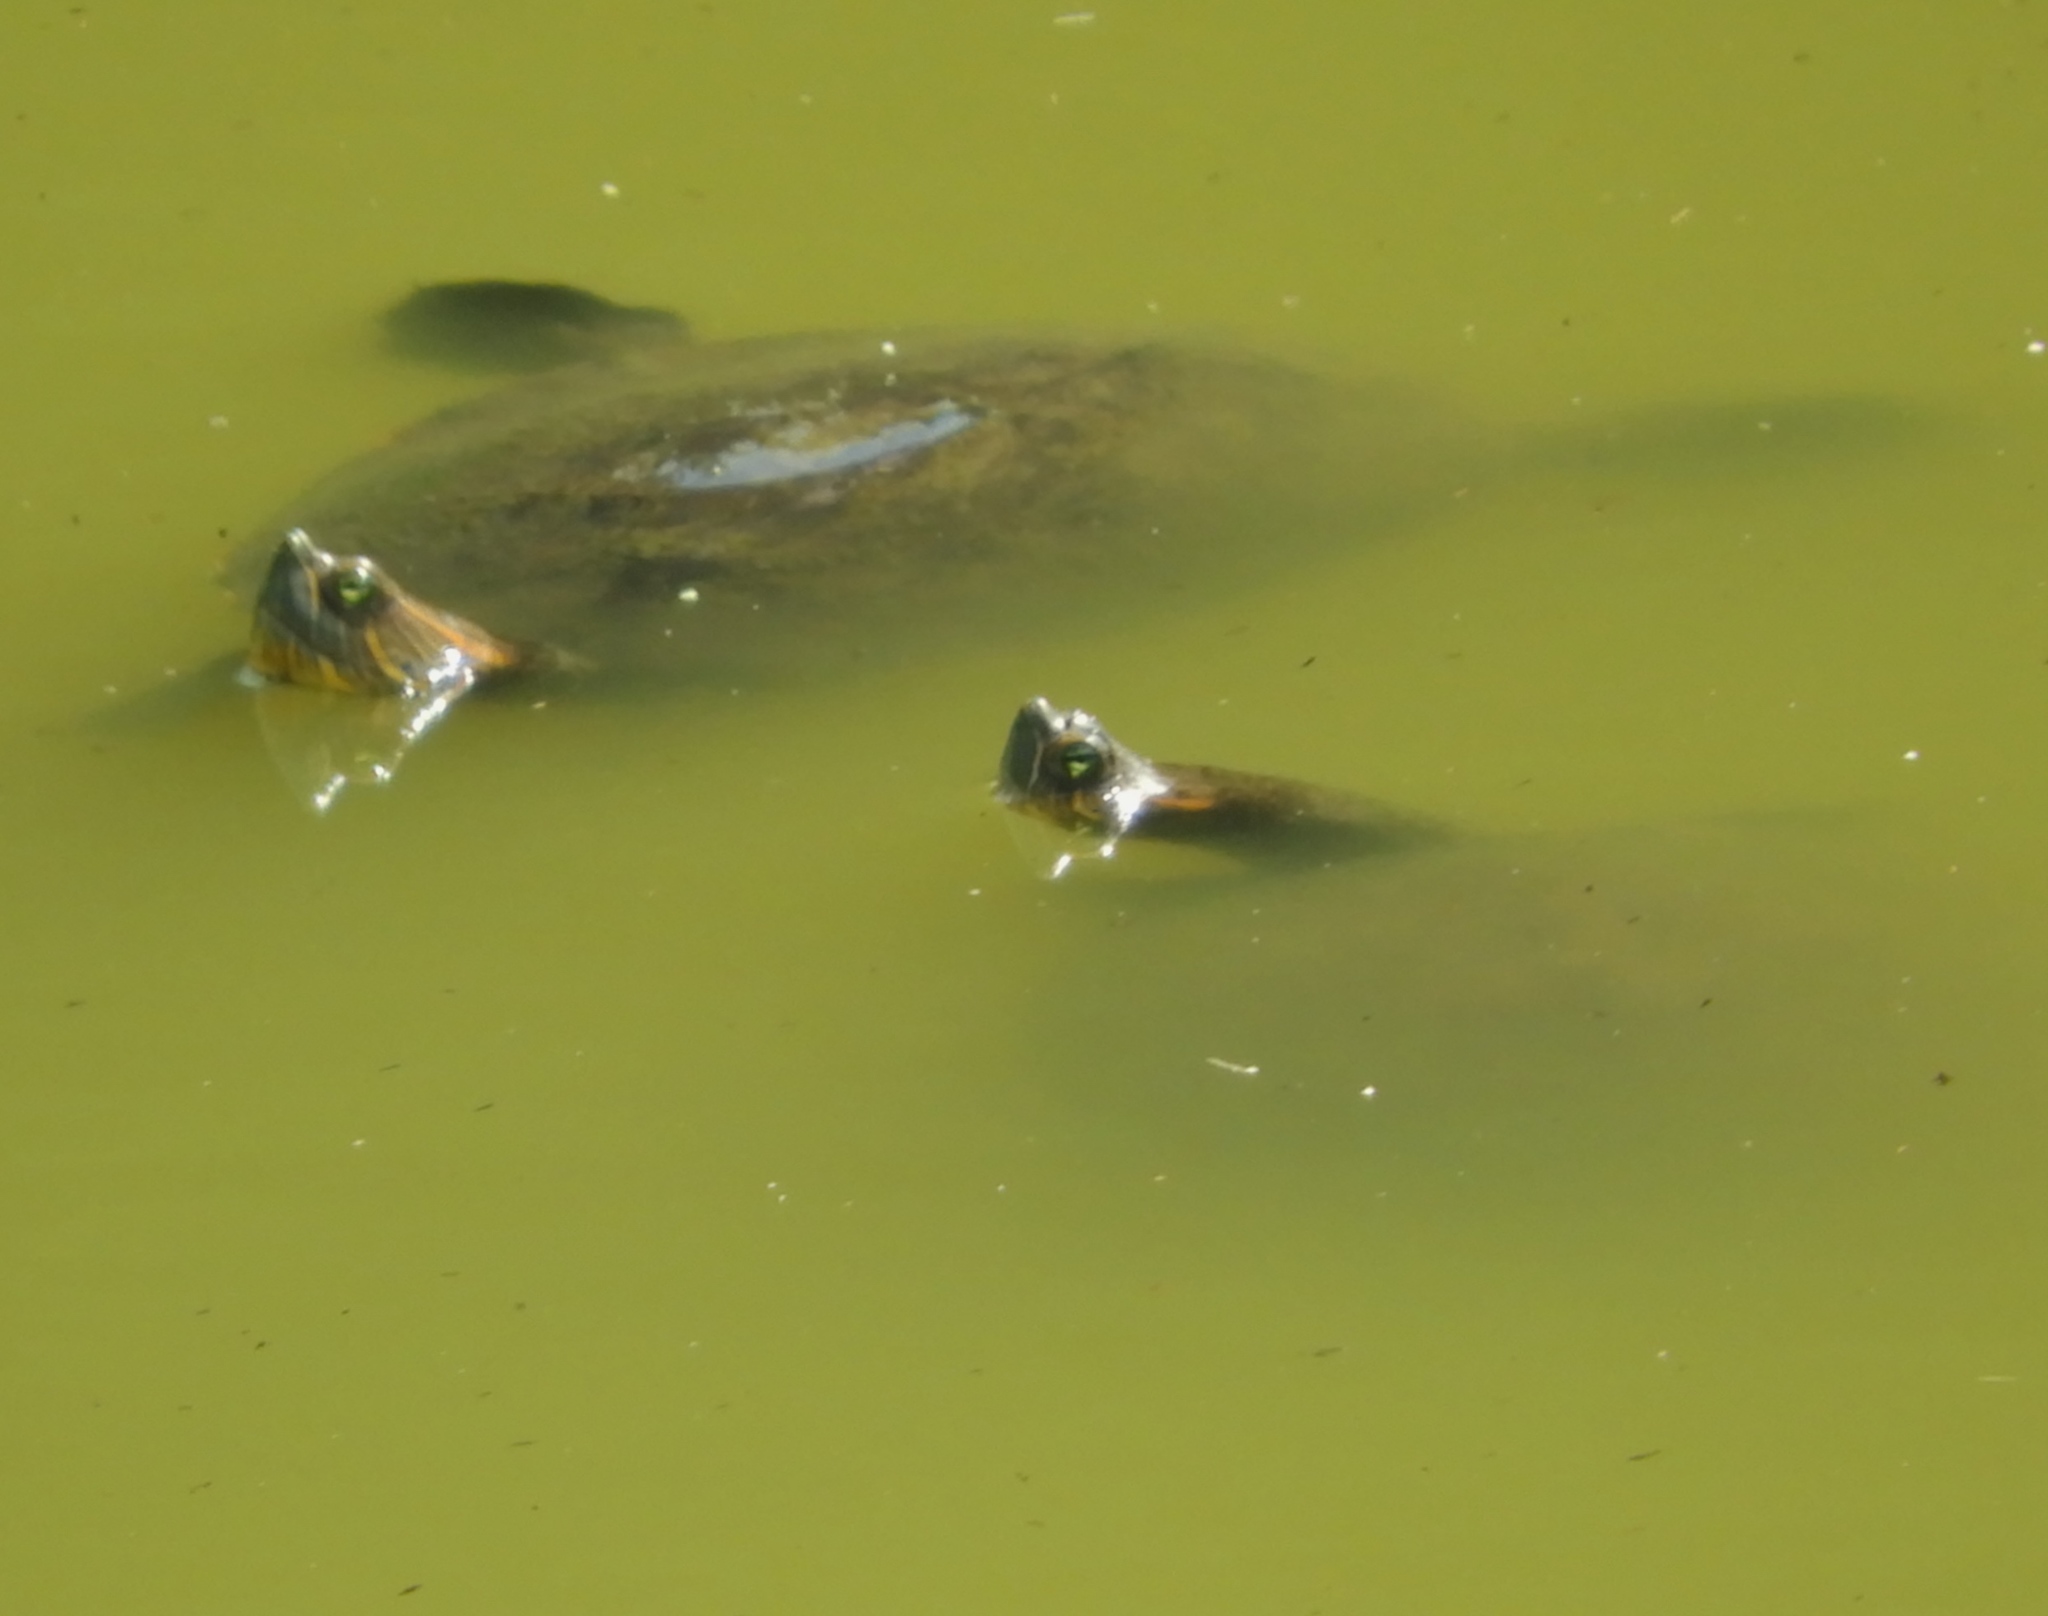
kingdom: Animalia
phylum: Chordata
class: Testudines
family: Emydidae
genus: Trachemys
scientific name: Trachemys ornata
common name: Ornate slider
